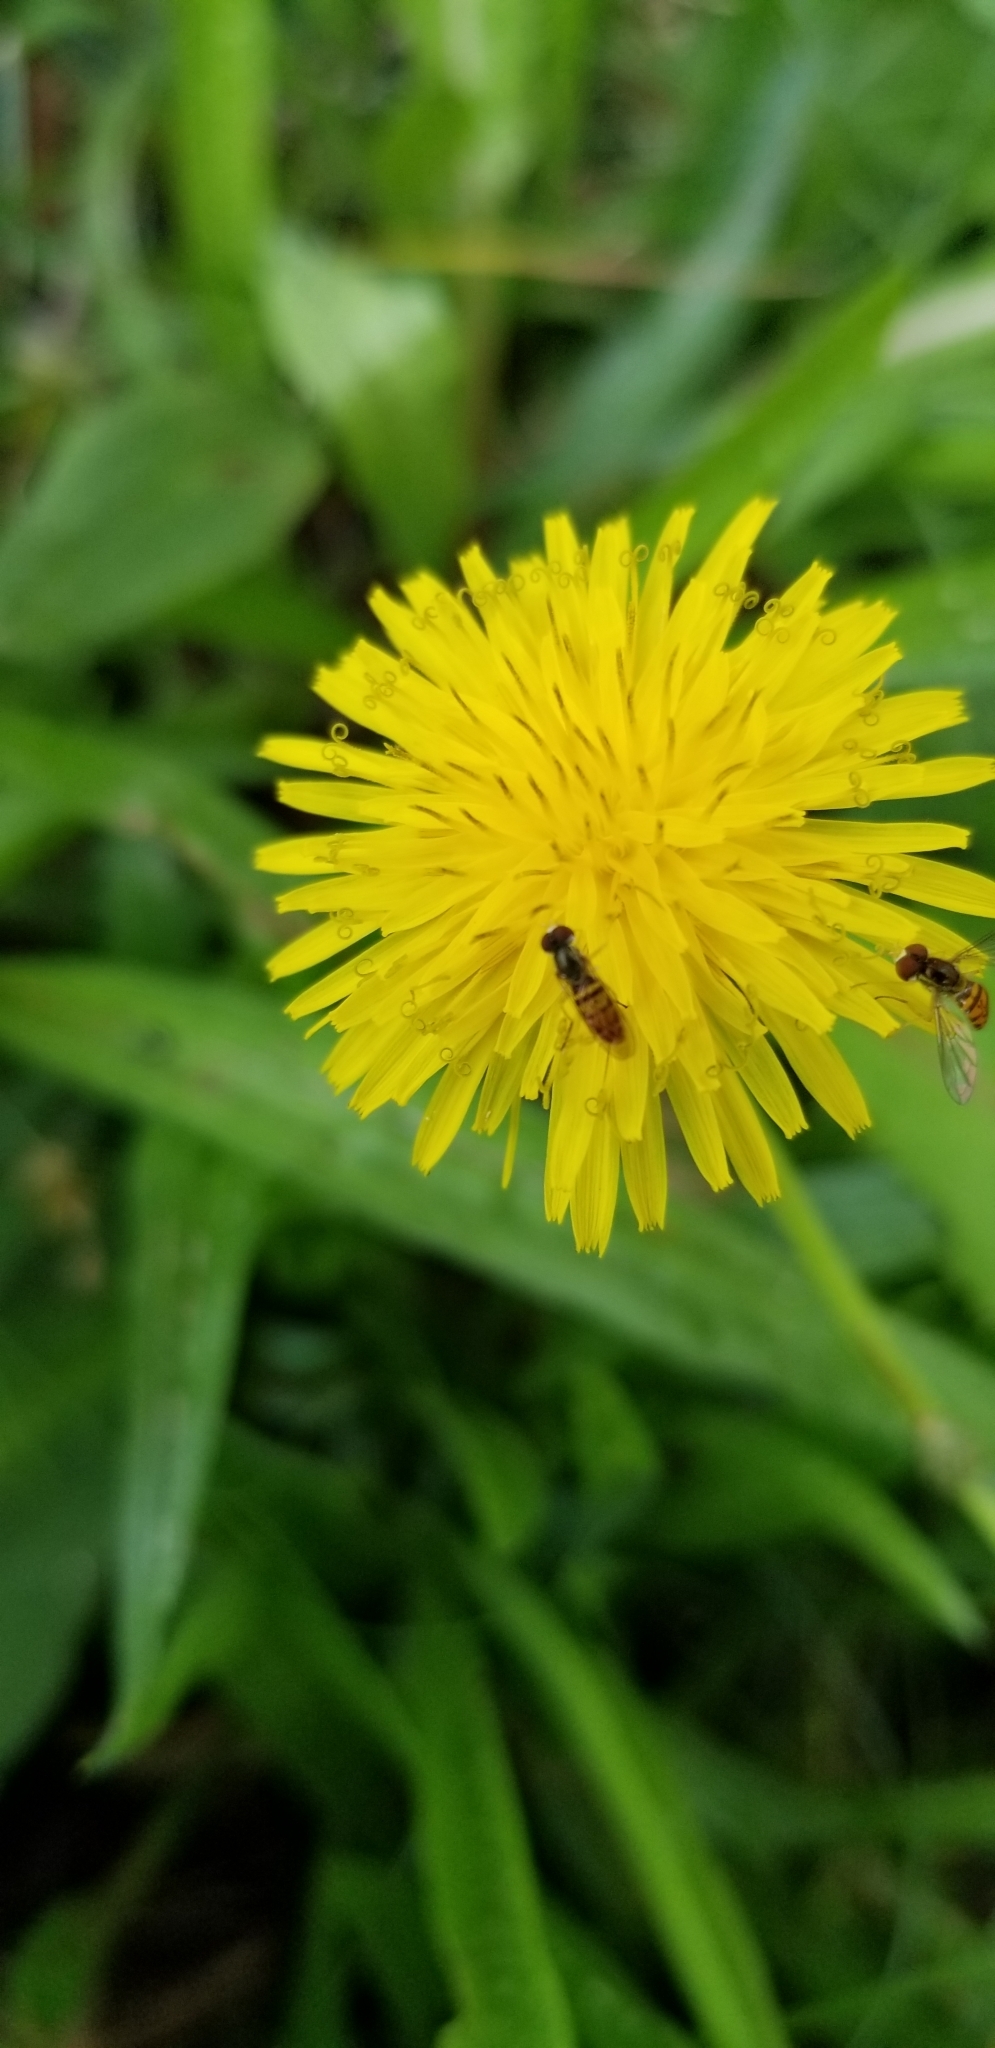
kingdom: Animalia
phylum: Arthropoda
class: Insecta
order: Diptera
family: Syrphidae
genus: Toxomerus
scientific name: Toxomerus marginatus
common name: Syrphid fly
